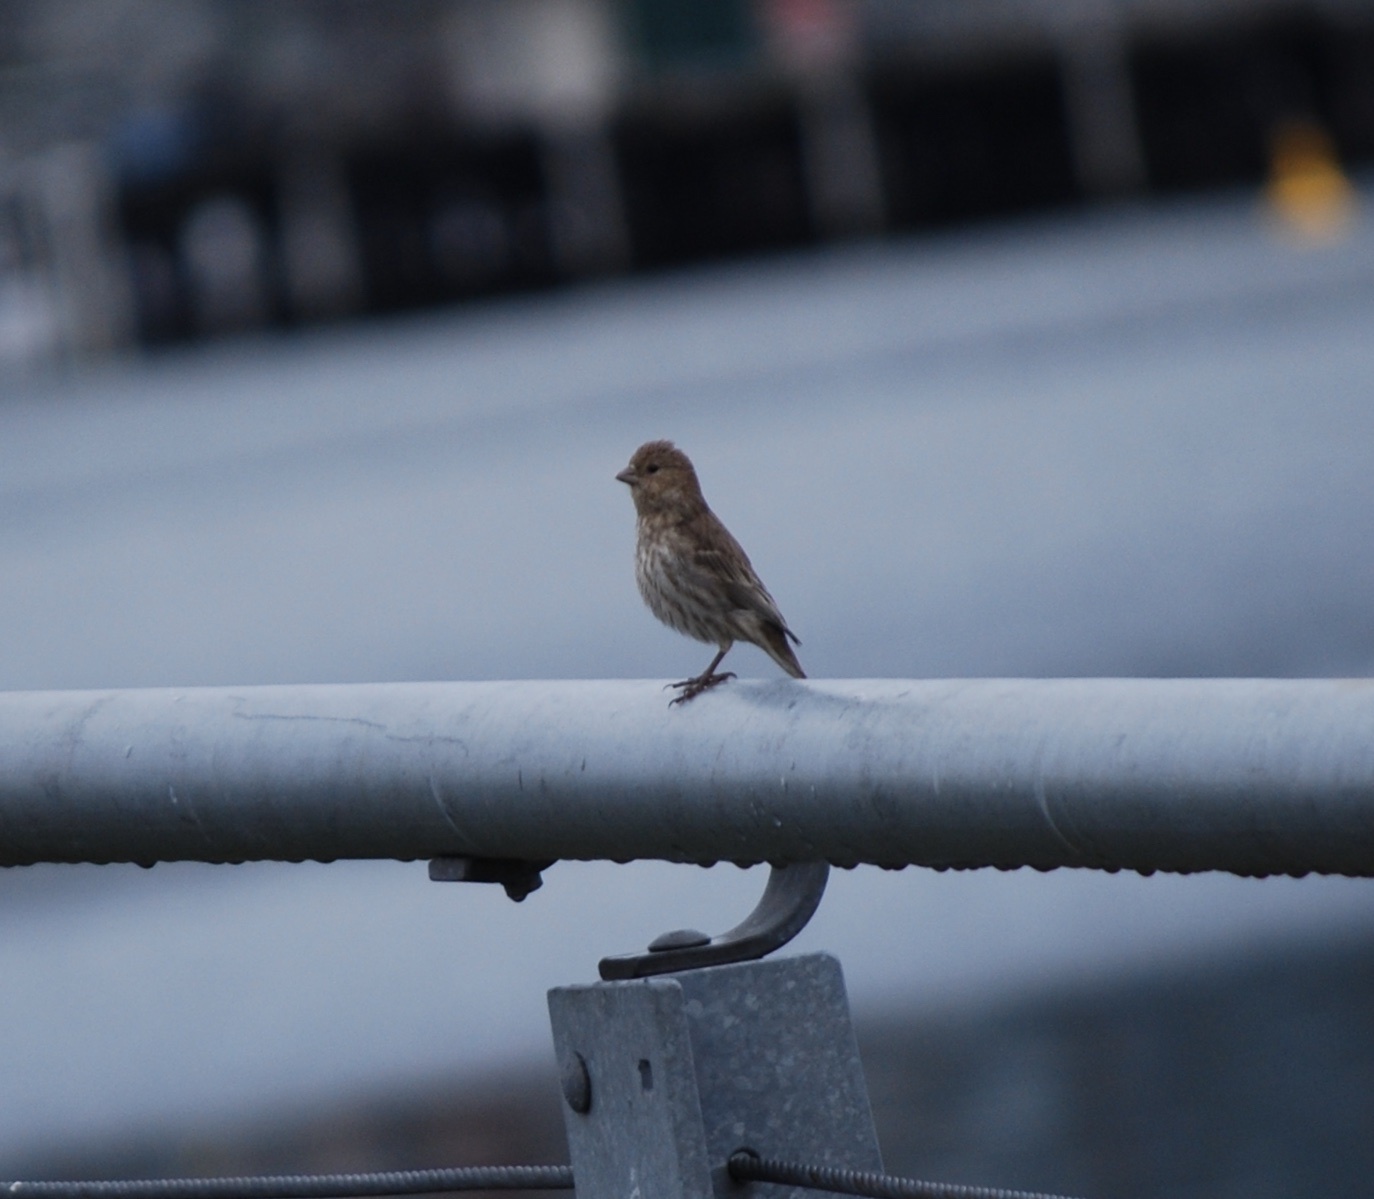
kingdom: Animalia
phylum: Chordata
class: Aves
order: Passeriformes
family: Fringillidae
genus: Haemorhous
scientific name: Haemorhous mexicanus
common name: House finch
